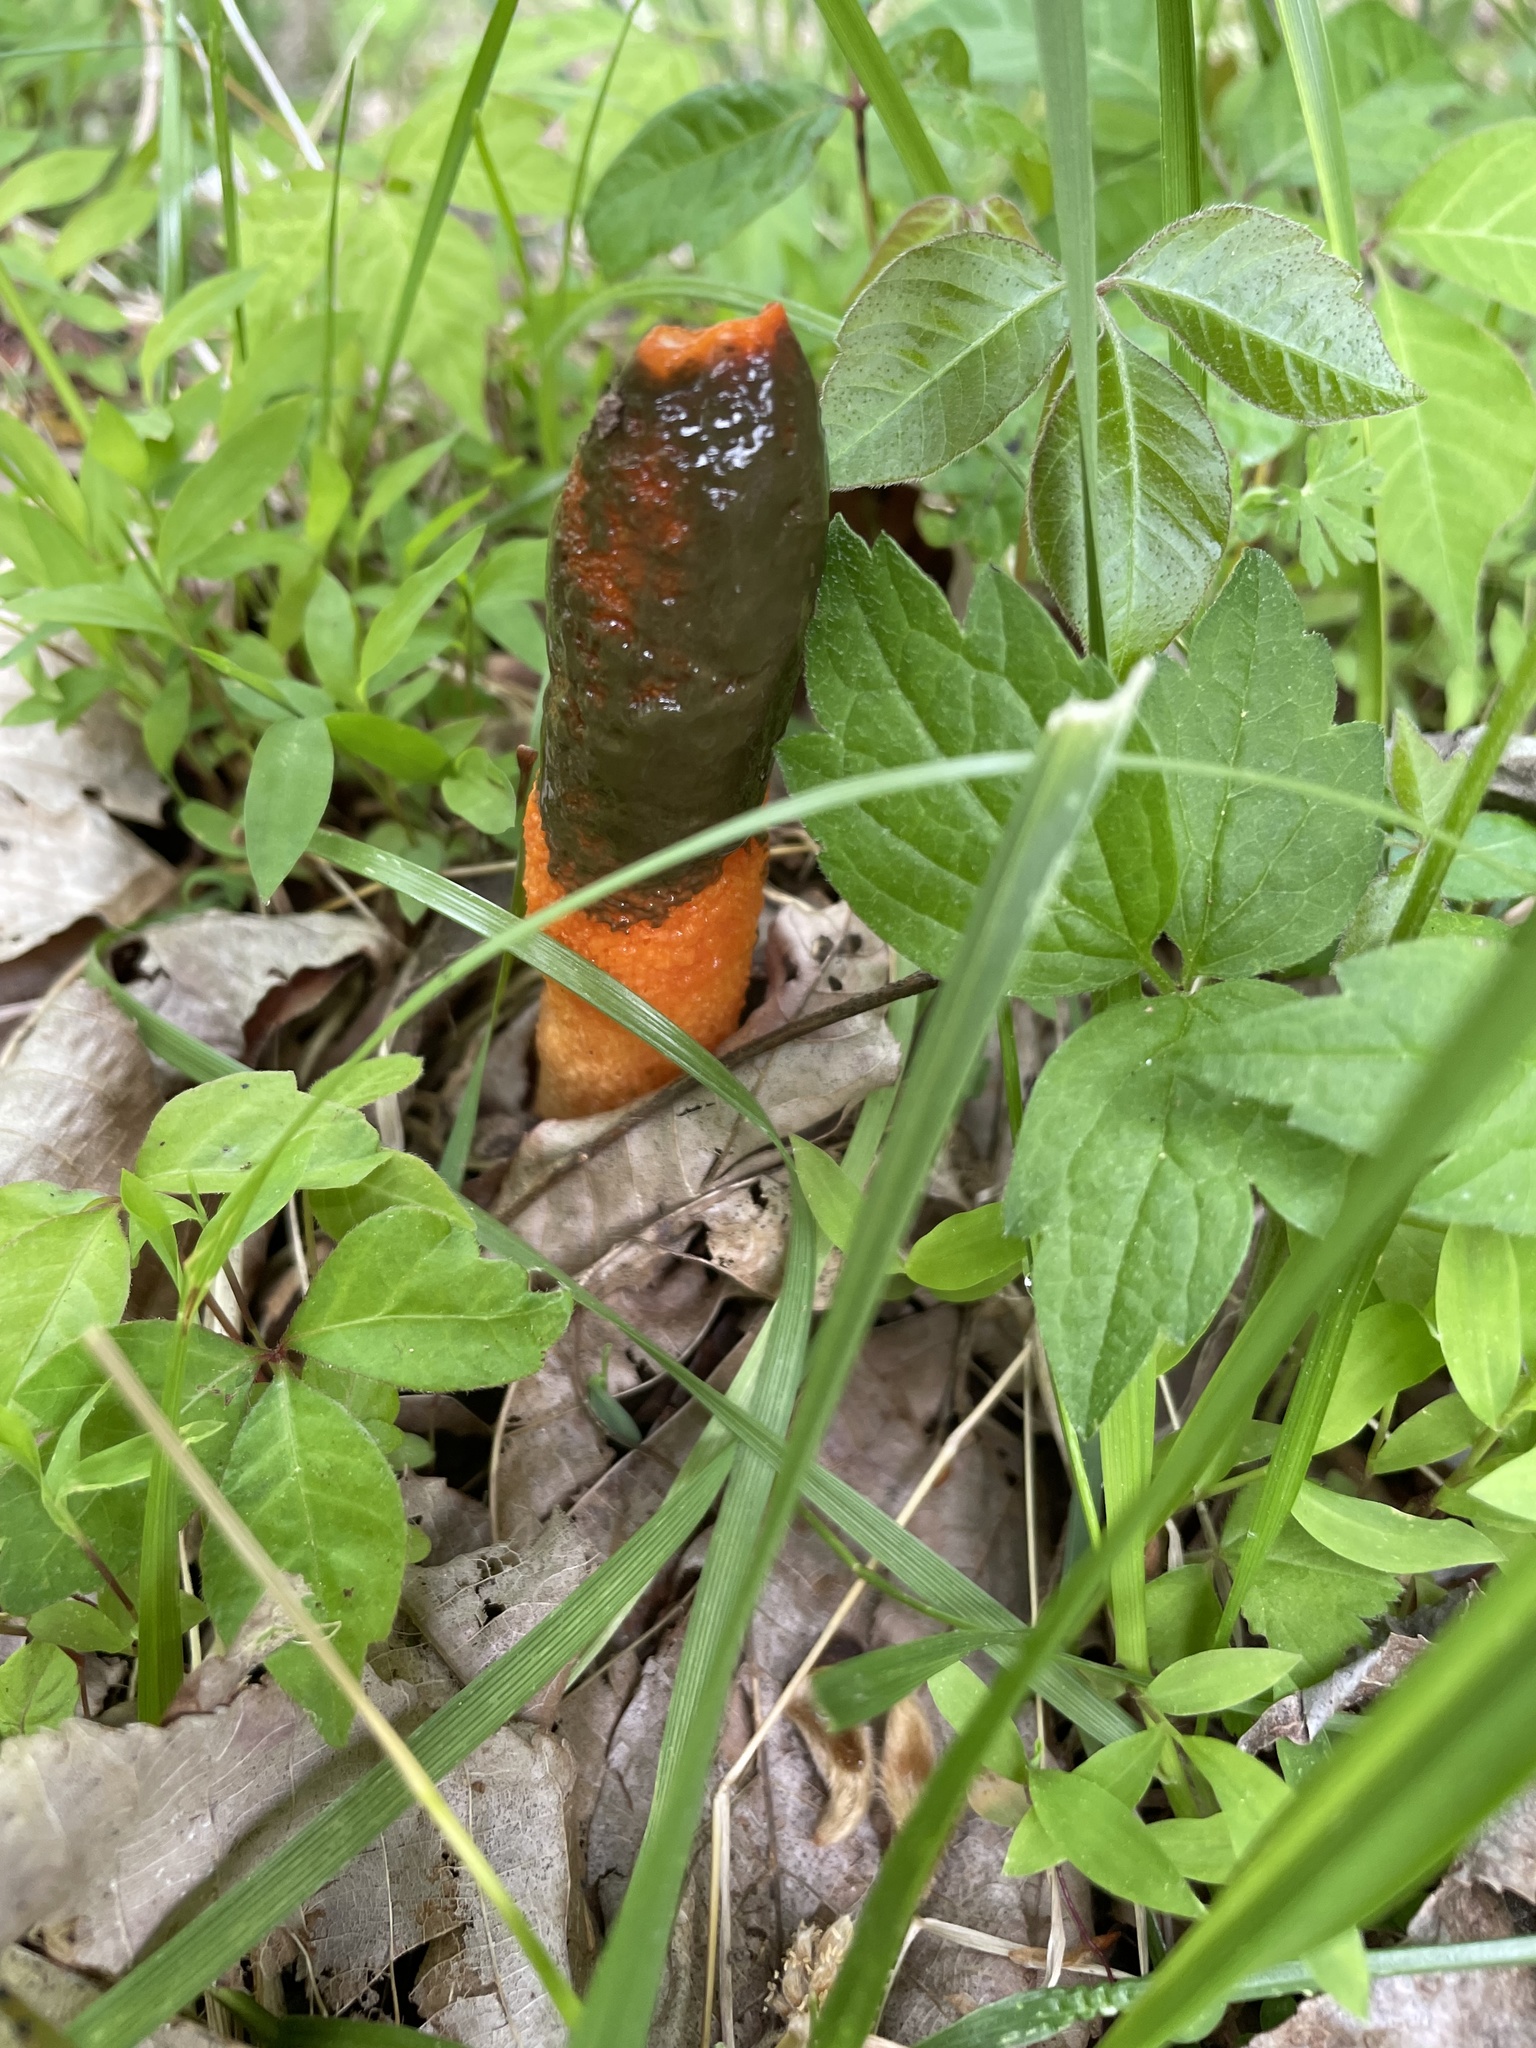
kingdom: Fungi
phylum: Basidiomycota
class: Agaricomycetes
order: Phallales
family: Phallaceae
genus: Mutinus
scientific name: Mutinus elegans
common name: Devil's dipstick
